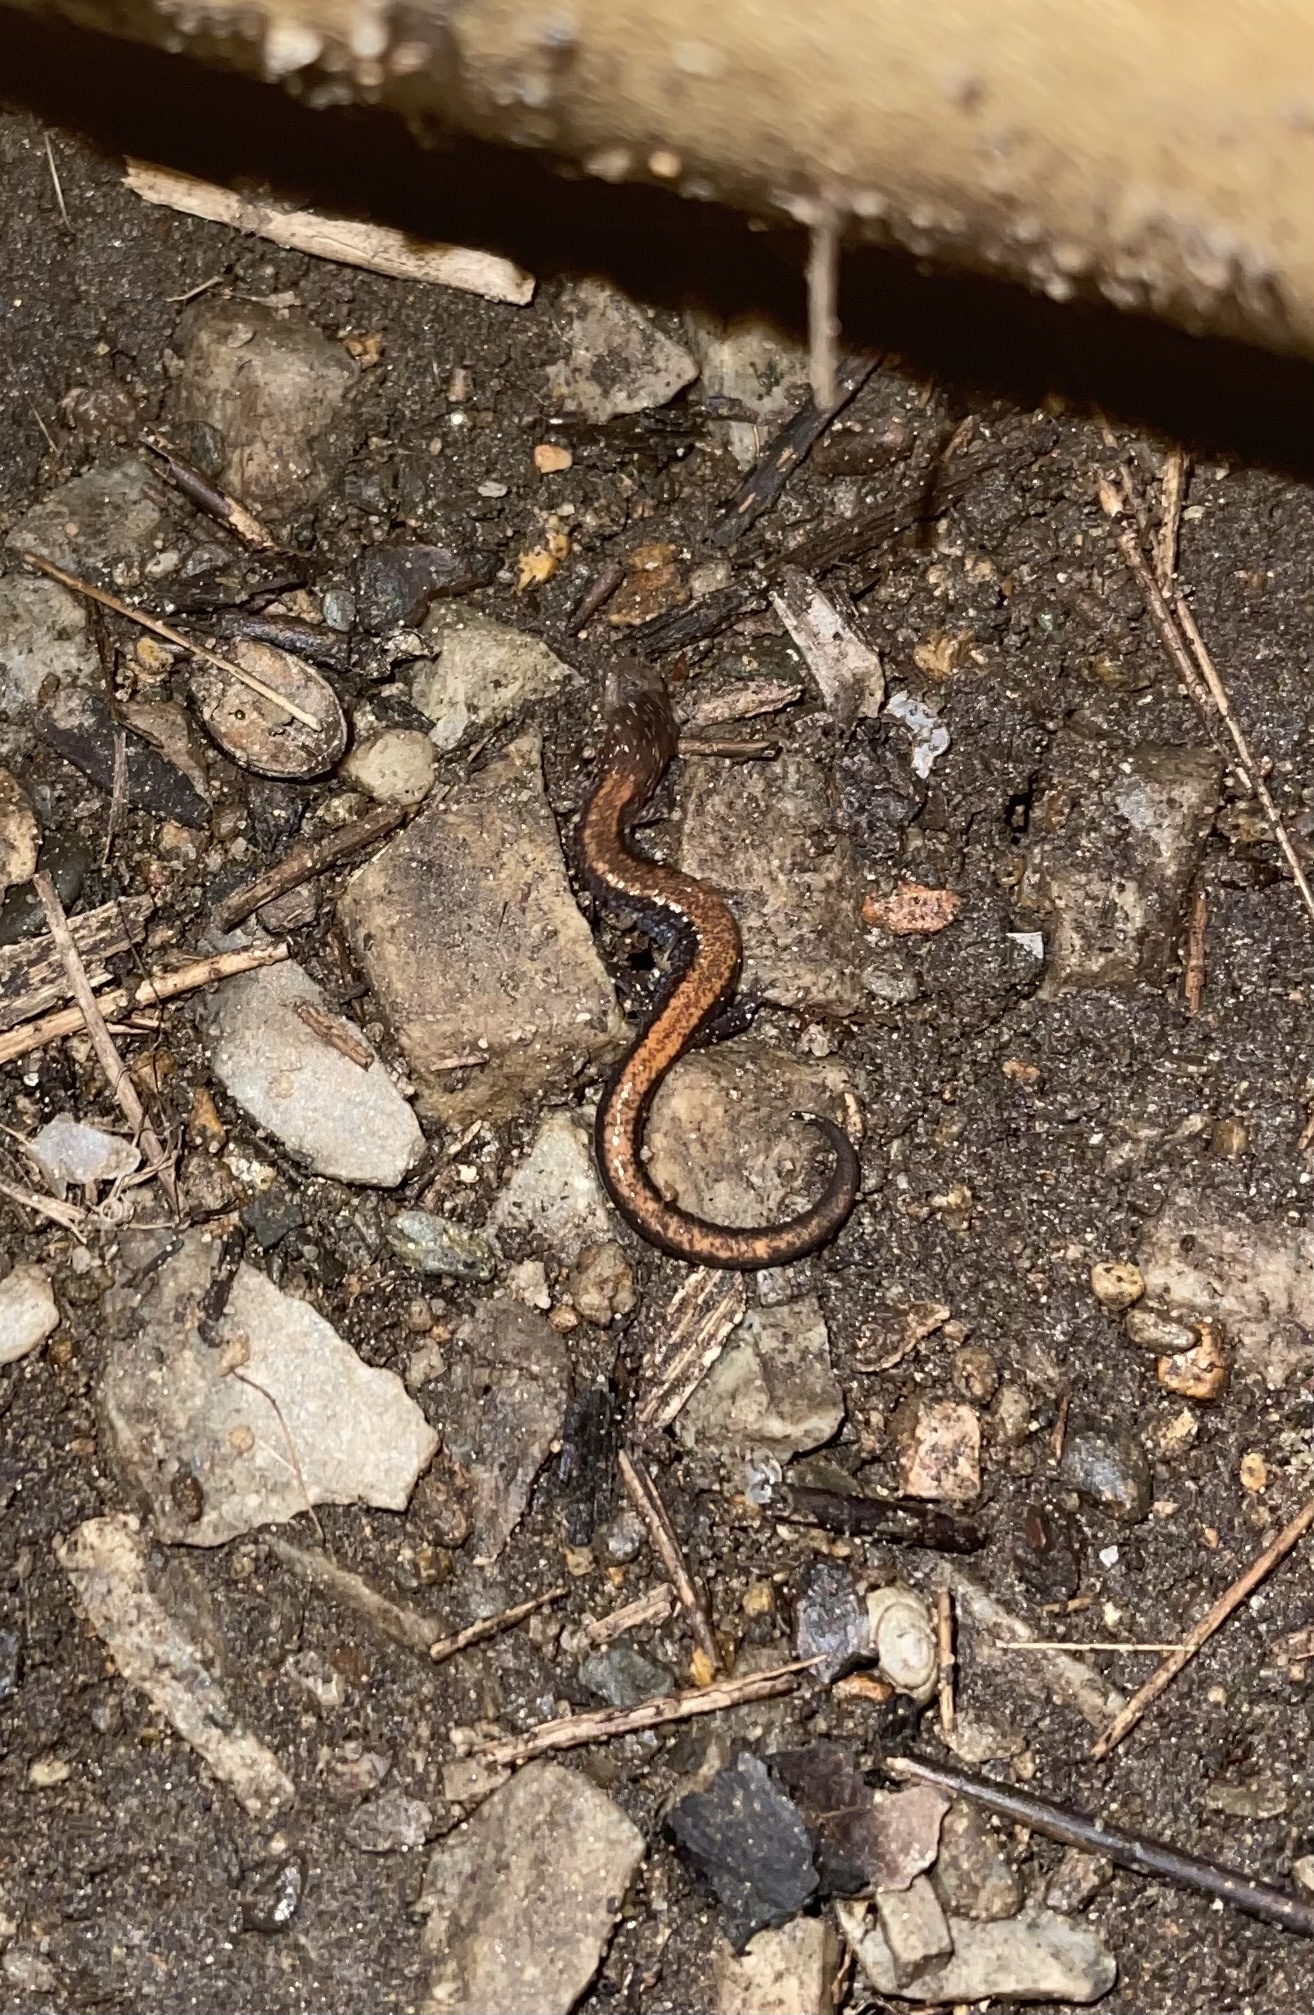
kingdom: Animalia
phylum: Chordata
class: Amphibia
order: Caudata
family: Plethodontidae
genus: Plethodon
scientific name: Plethodon cinereus
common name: Redback salamander
